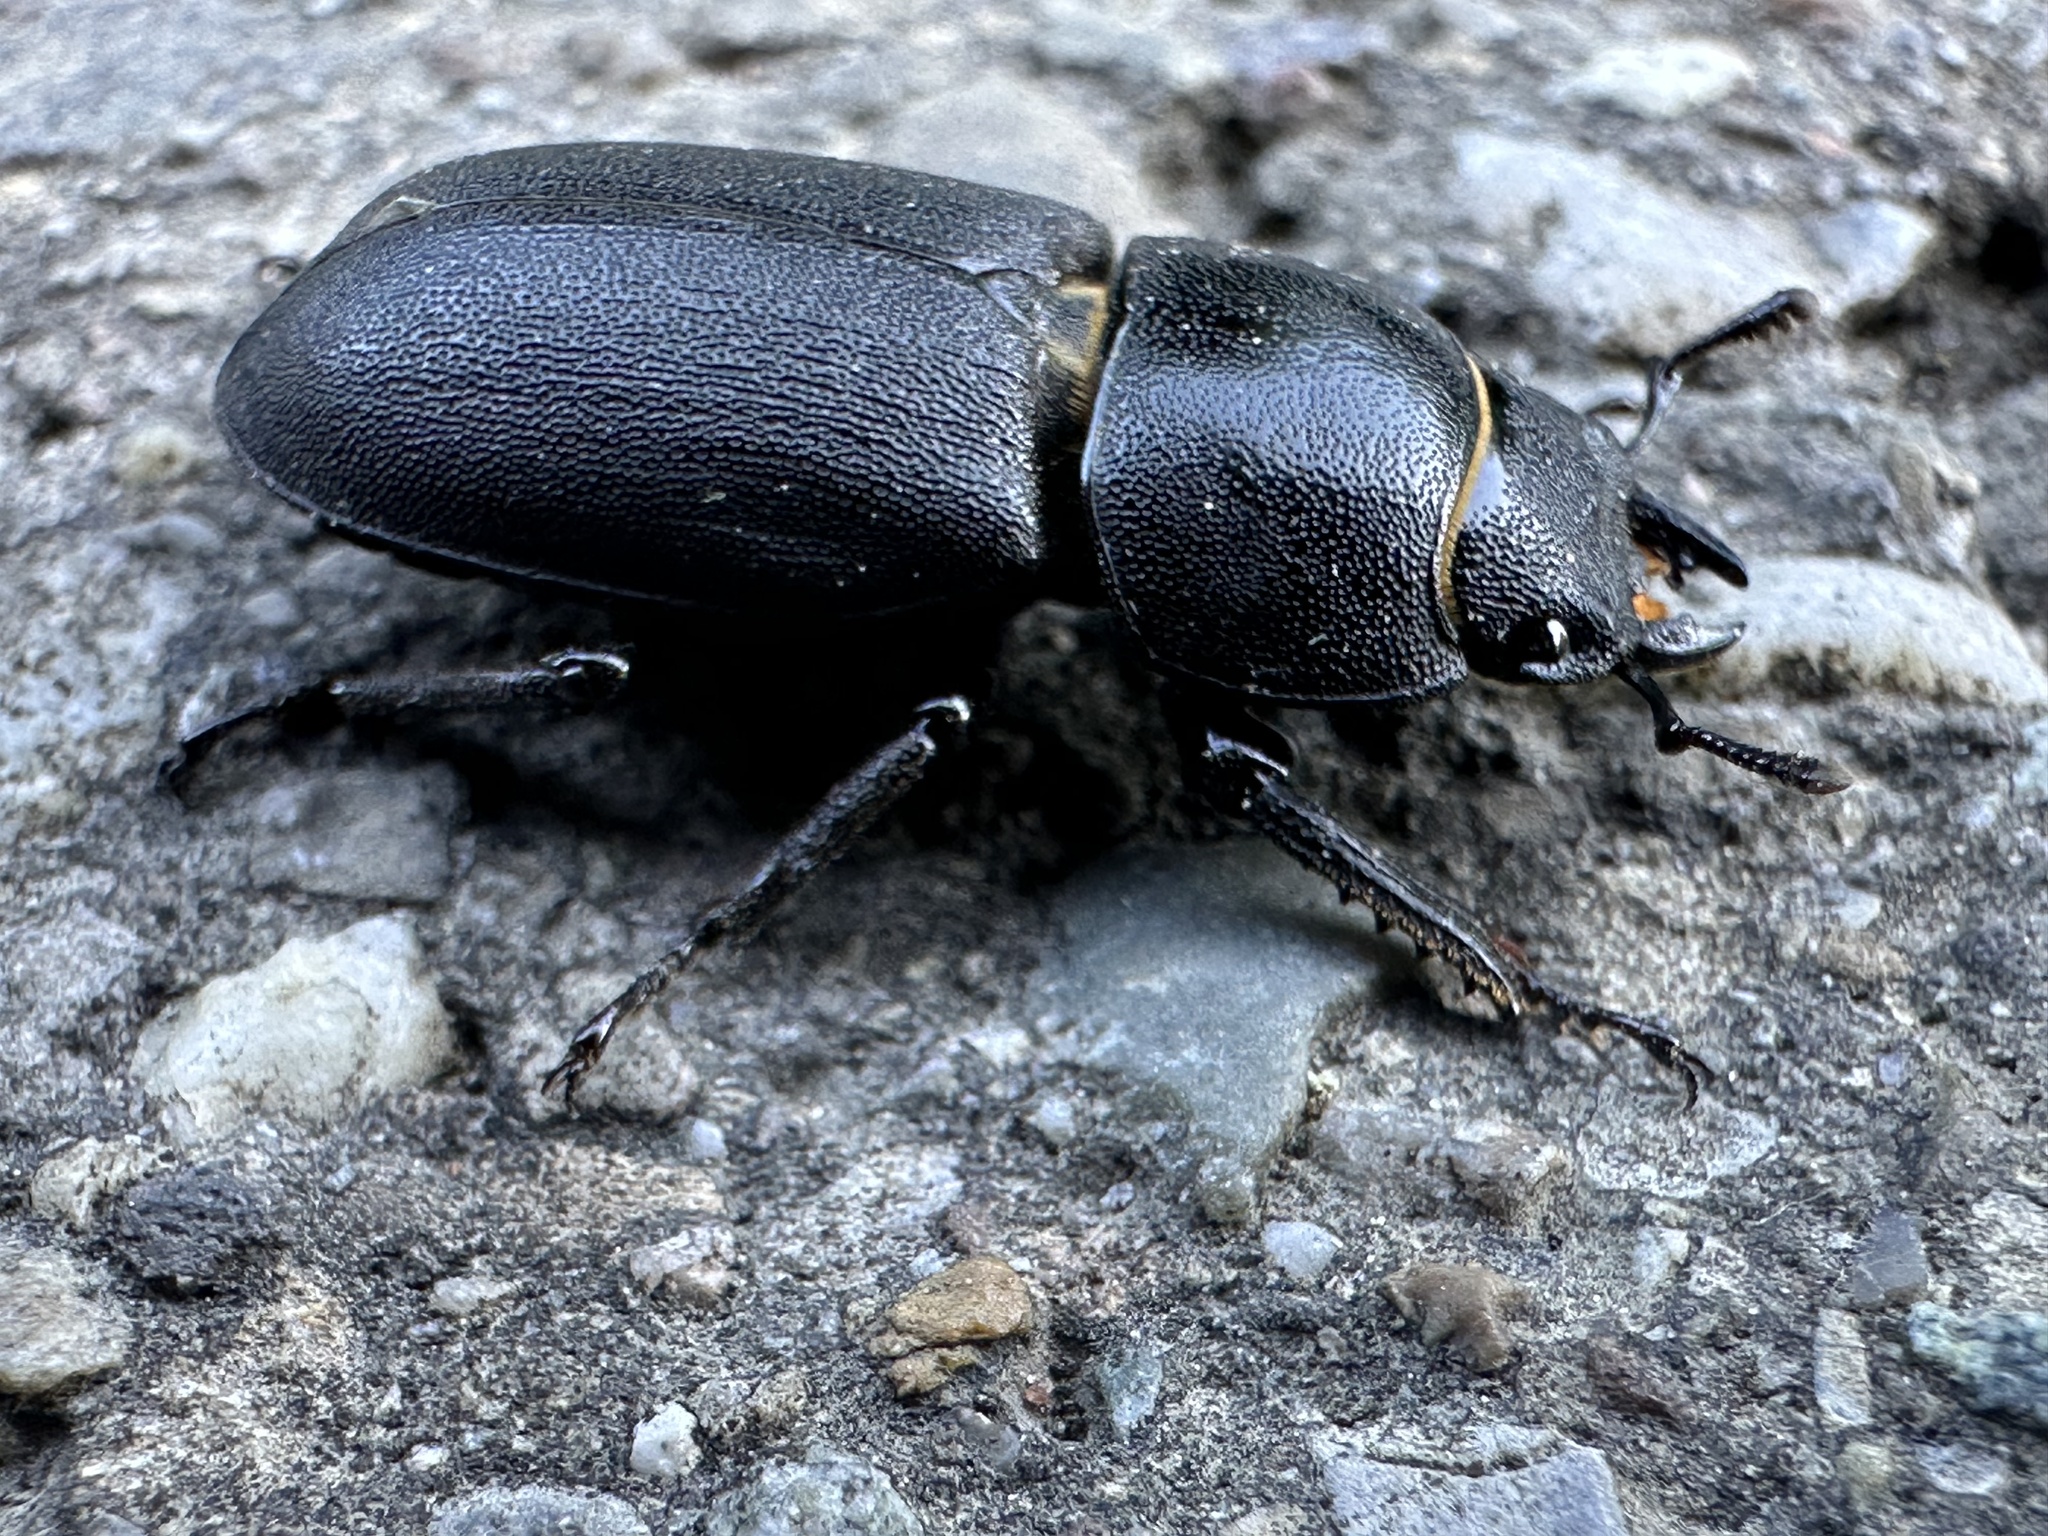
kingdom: Animalia
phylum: Arthropoda
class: Insecta
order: Coleoptera
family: Lucanidae
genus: Dorcus
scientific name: Dorcus parallelipipedus
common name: Lesser stag beetle
